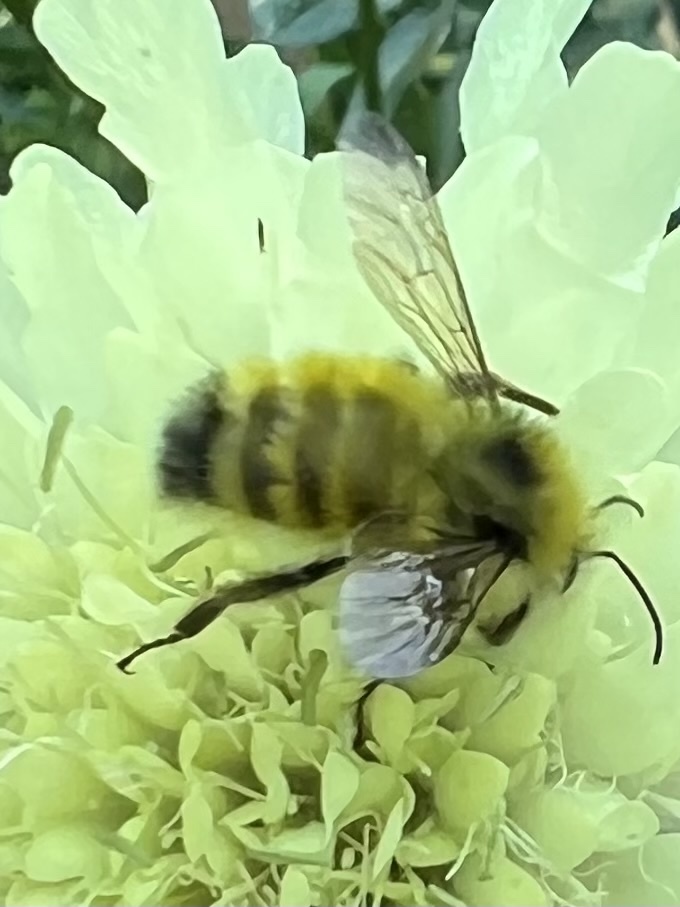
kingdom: Animalia
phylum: Arthropoda
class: Insecta
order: Hymenoptera
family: Apidae
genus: Bombus
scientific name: Bombus flavifrons
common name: Yellow head bumble bee
